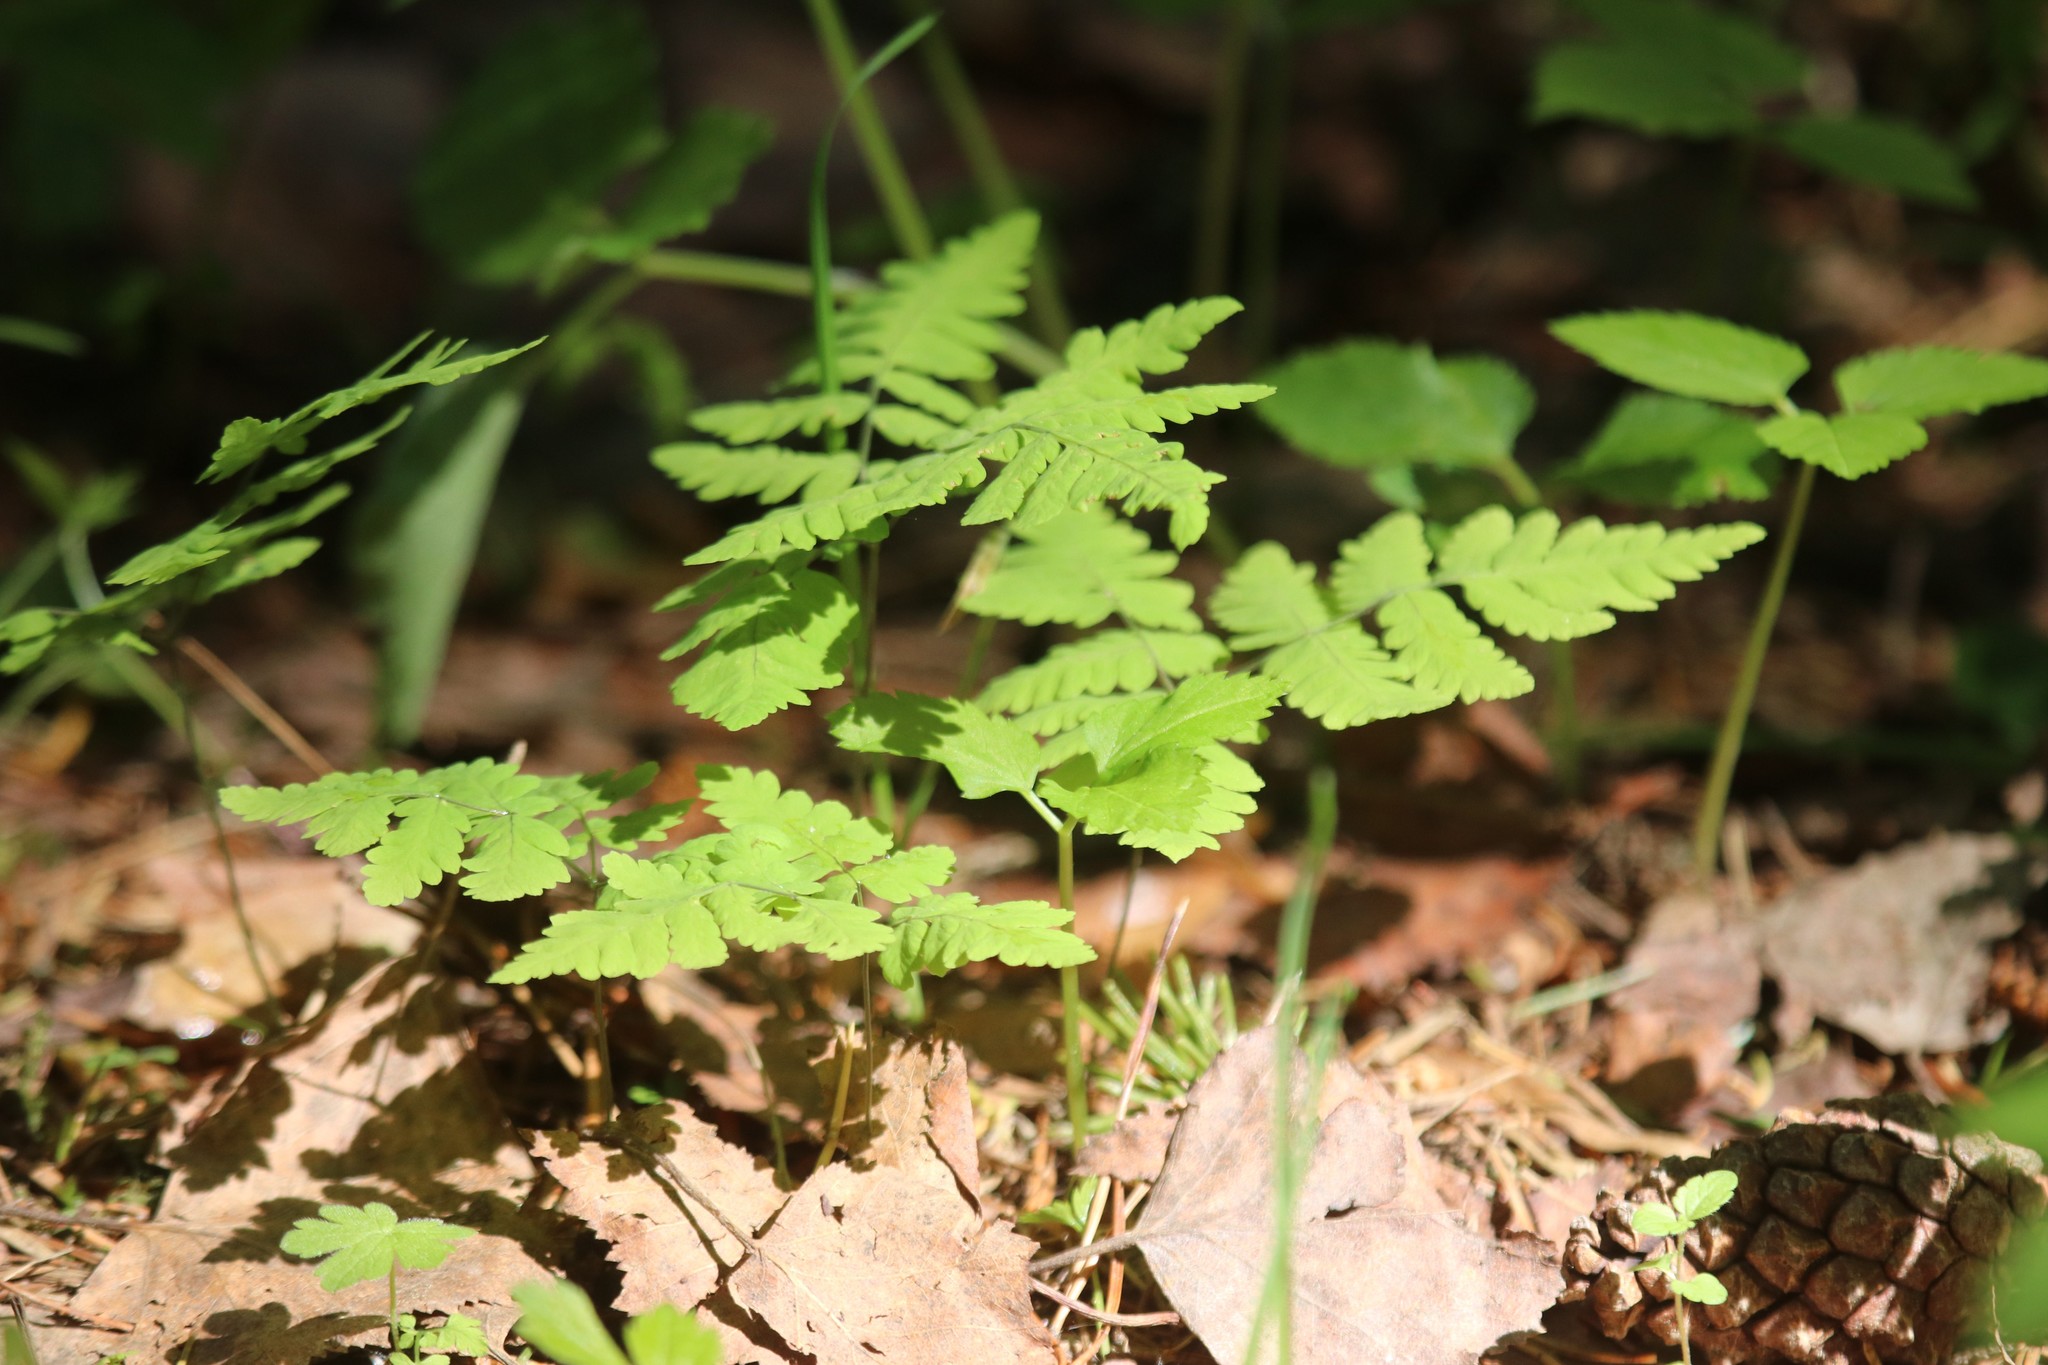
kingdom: Plantae
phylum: Tracheophyta
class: Polypodiopsida
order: Polypodiales
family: Cystopteridaceae
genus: Gymnocarpium
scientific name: Gymnocarpium dryopteris
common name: Oak fern
